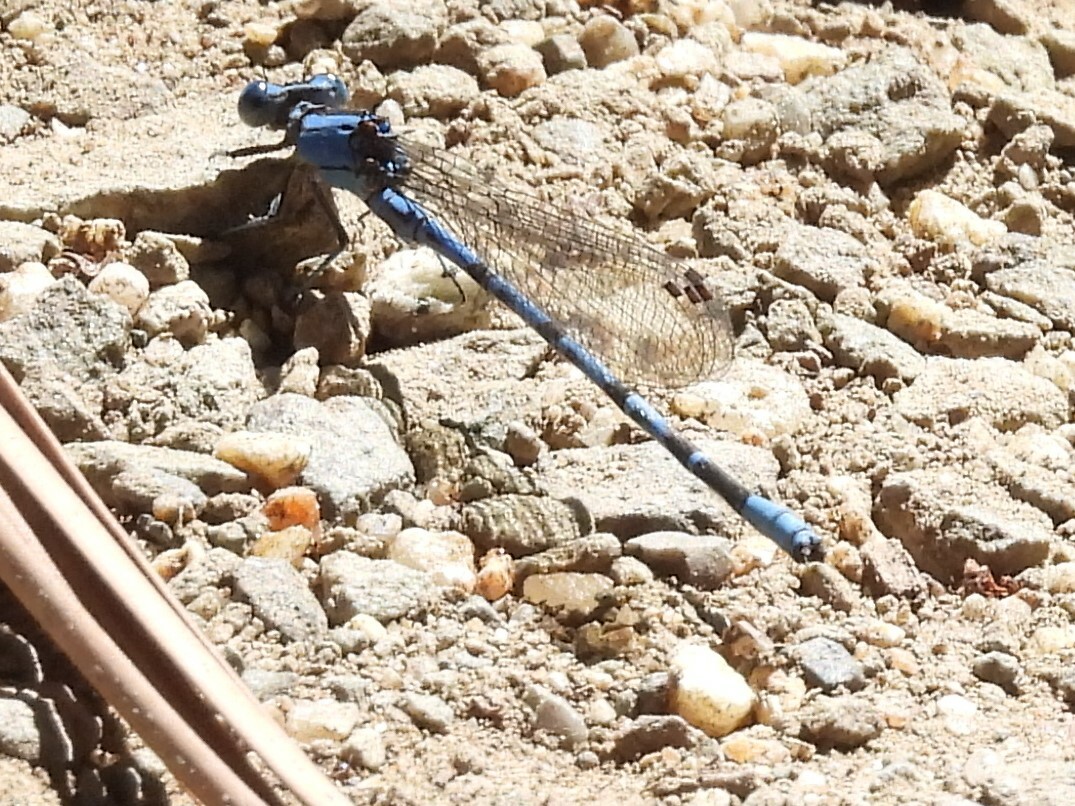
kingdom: Animalia
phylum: Arthropoda
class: Insecta
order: Odonata
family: Coenagrionidae
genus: Argia
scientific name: Argia vivida
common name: Vivid dancer
